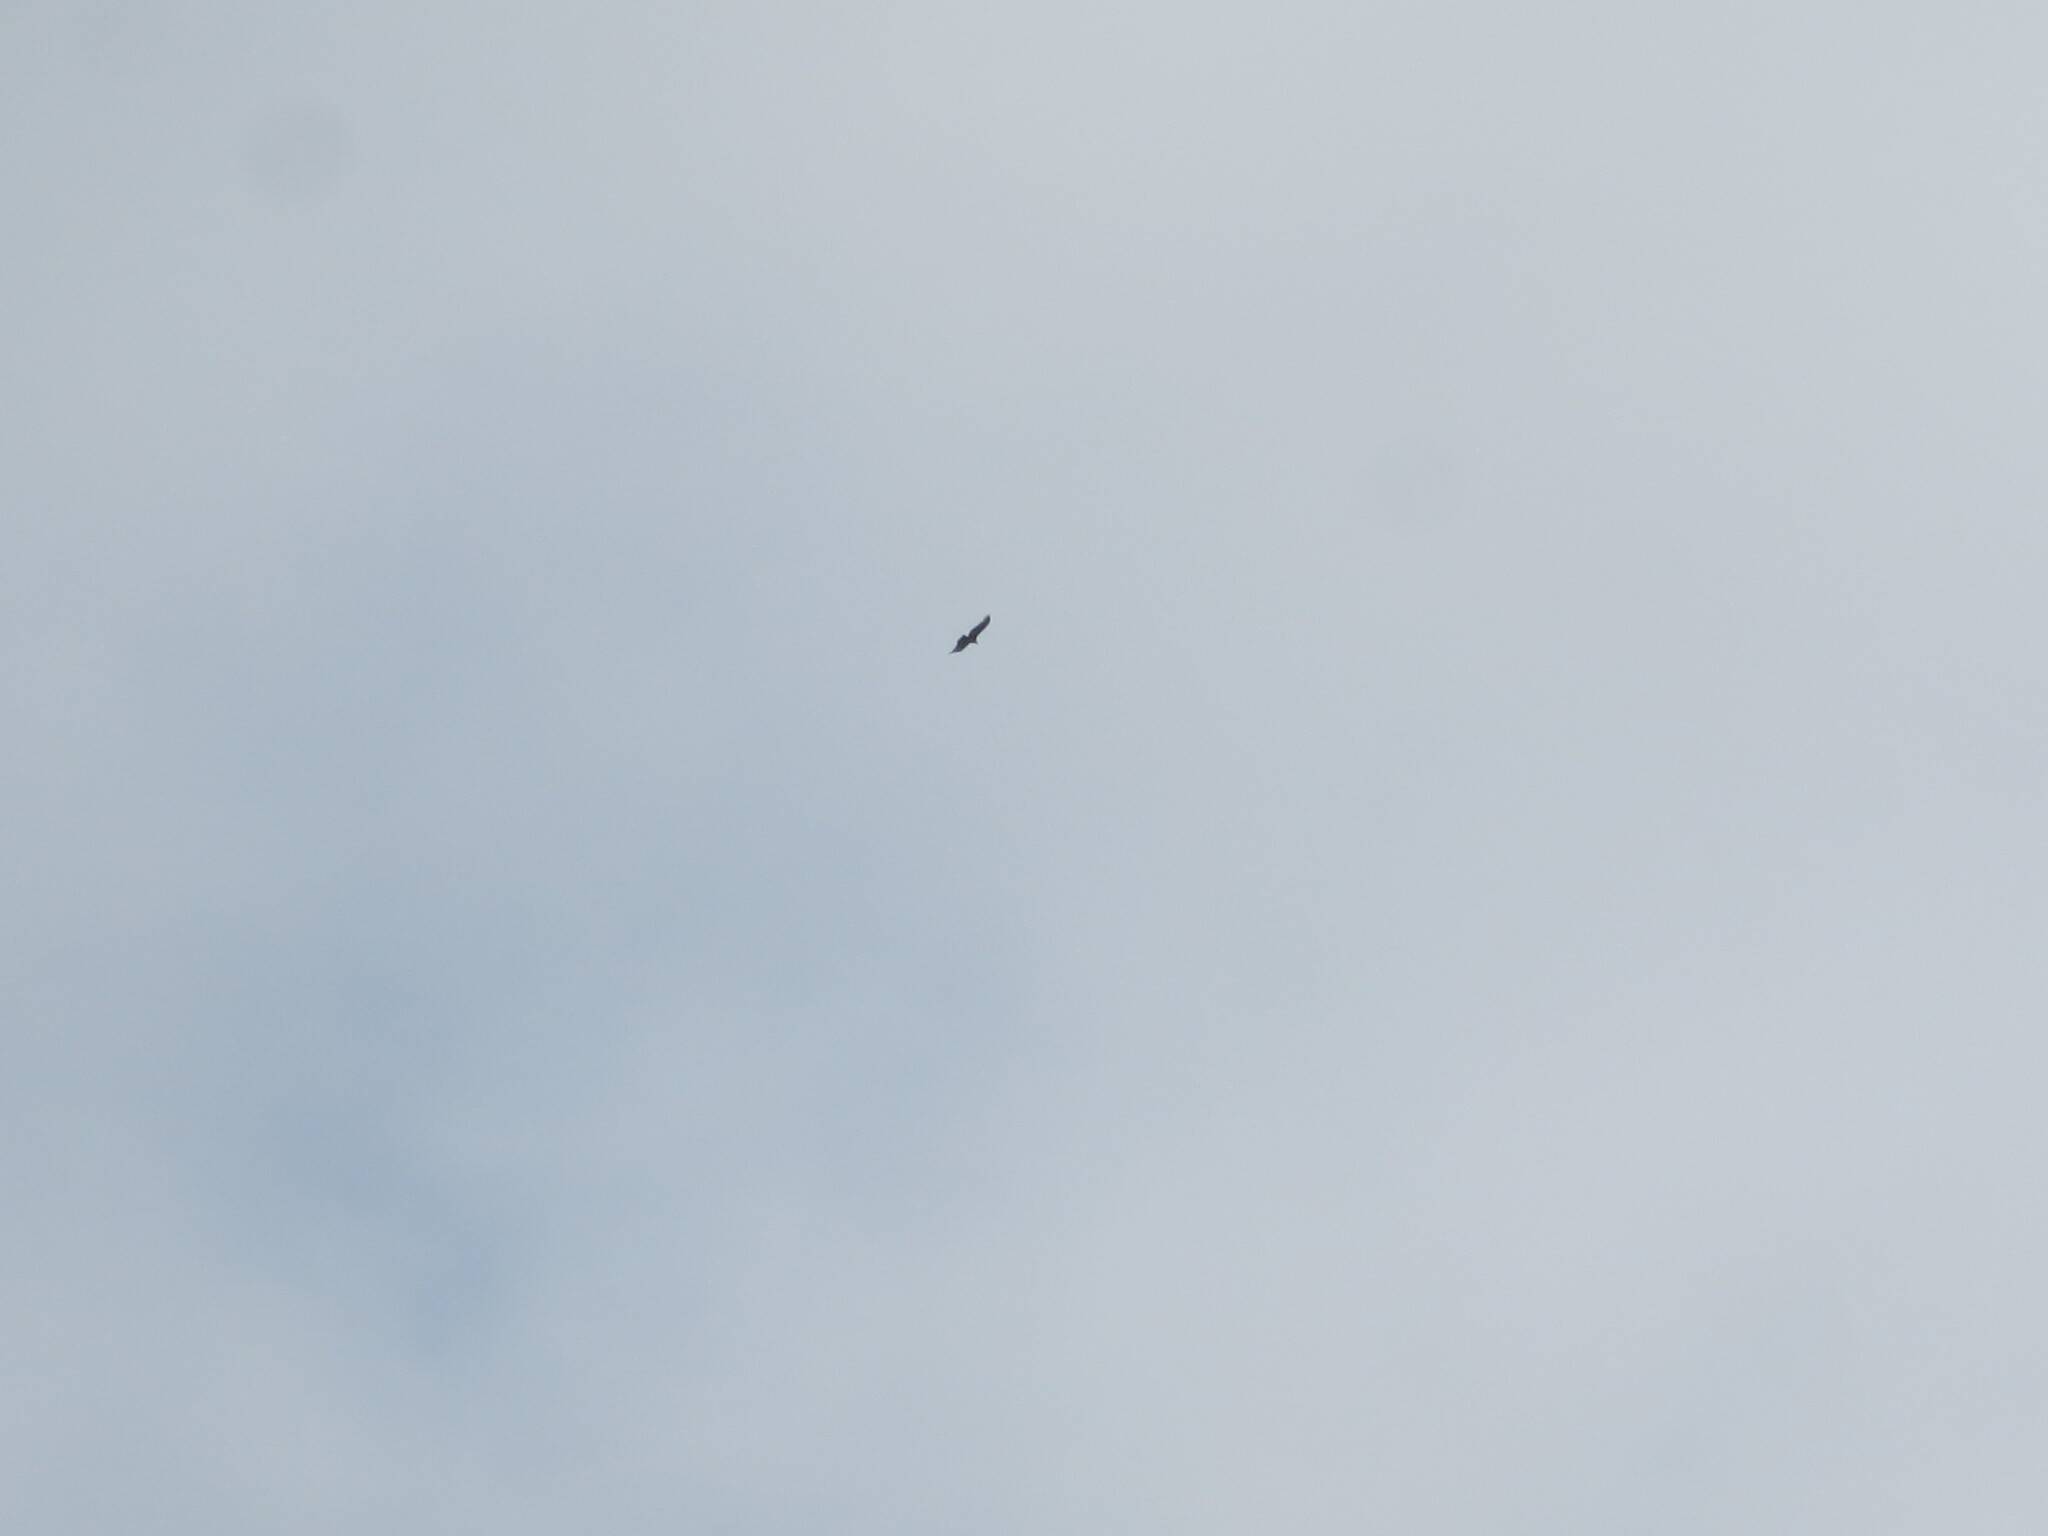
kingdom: Animalia
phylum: Chordata
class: Aves
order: Accipitriformes
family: Cathartidae
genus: Cathartes
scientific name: Cathartes aura
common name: Turkey vulture
